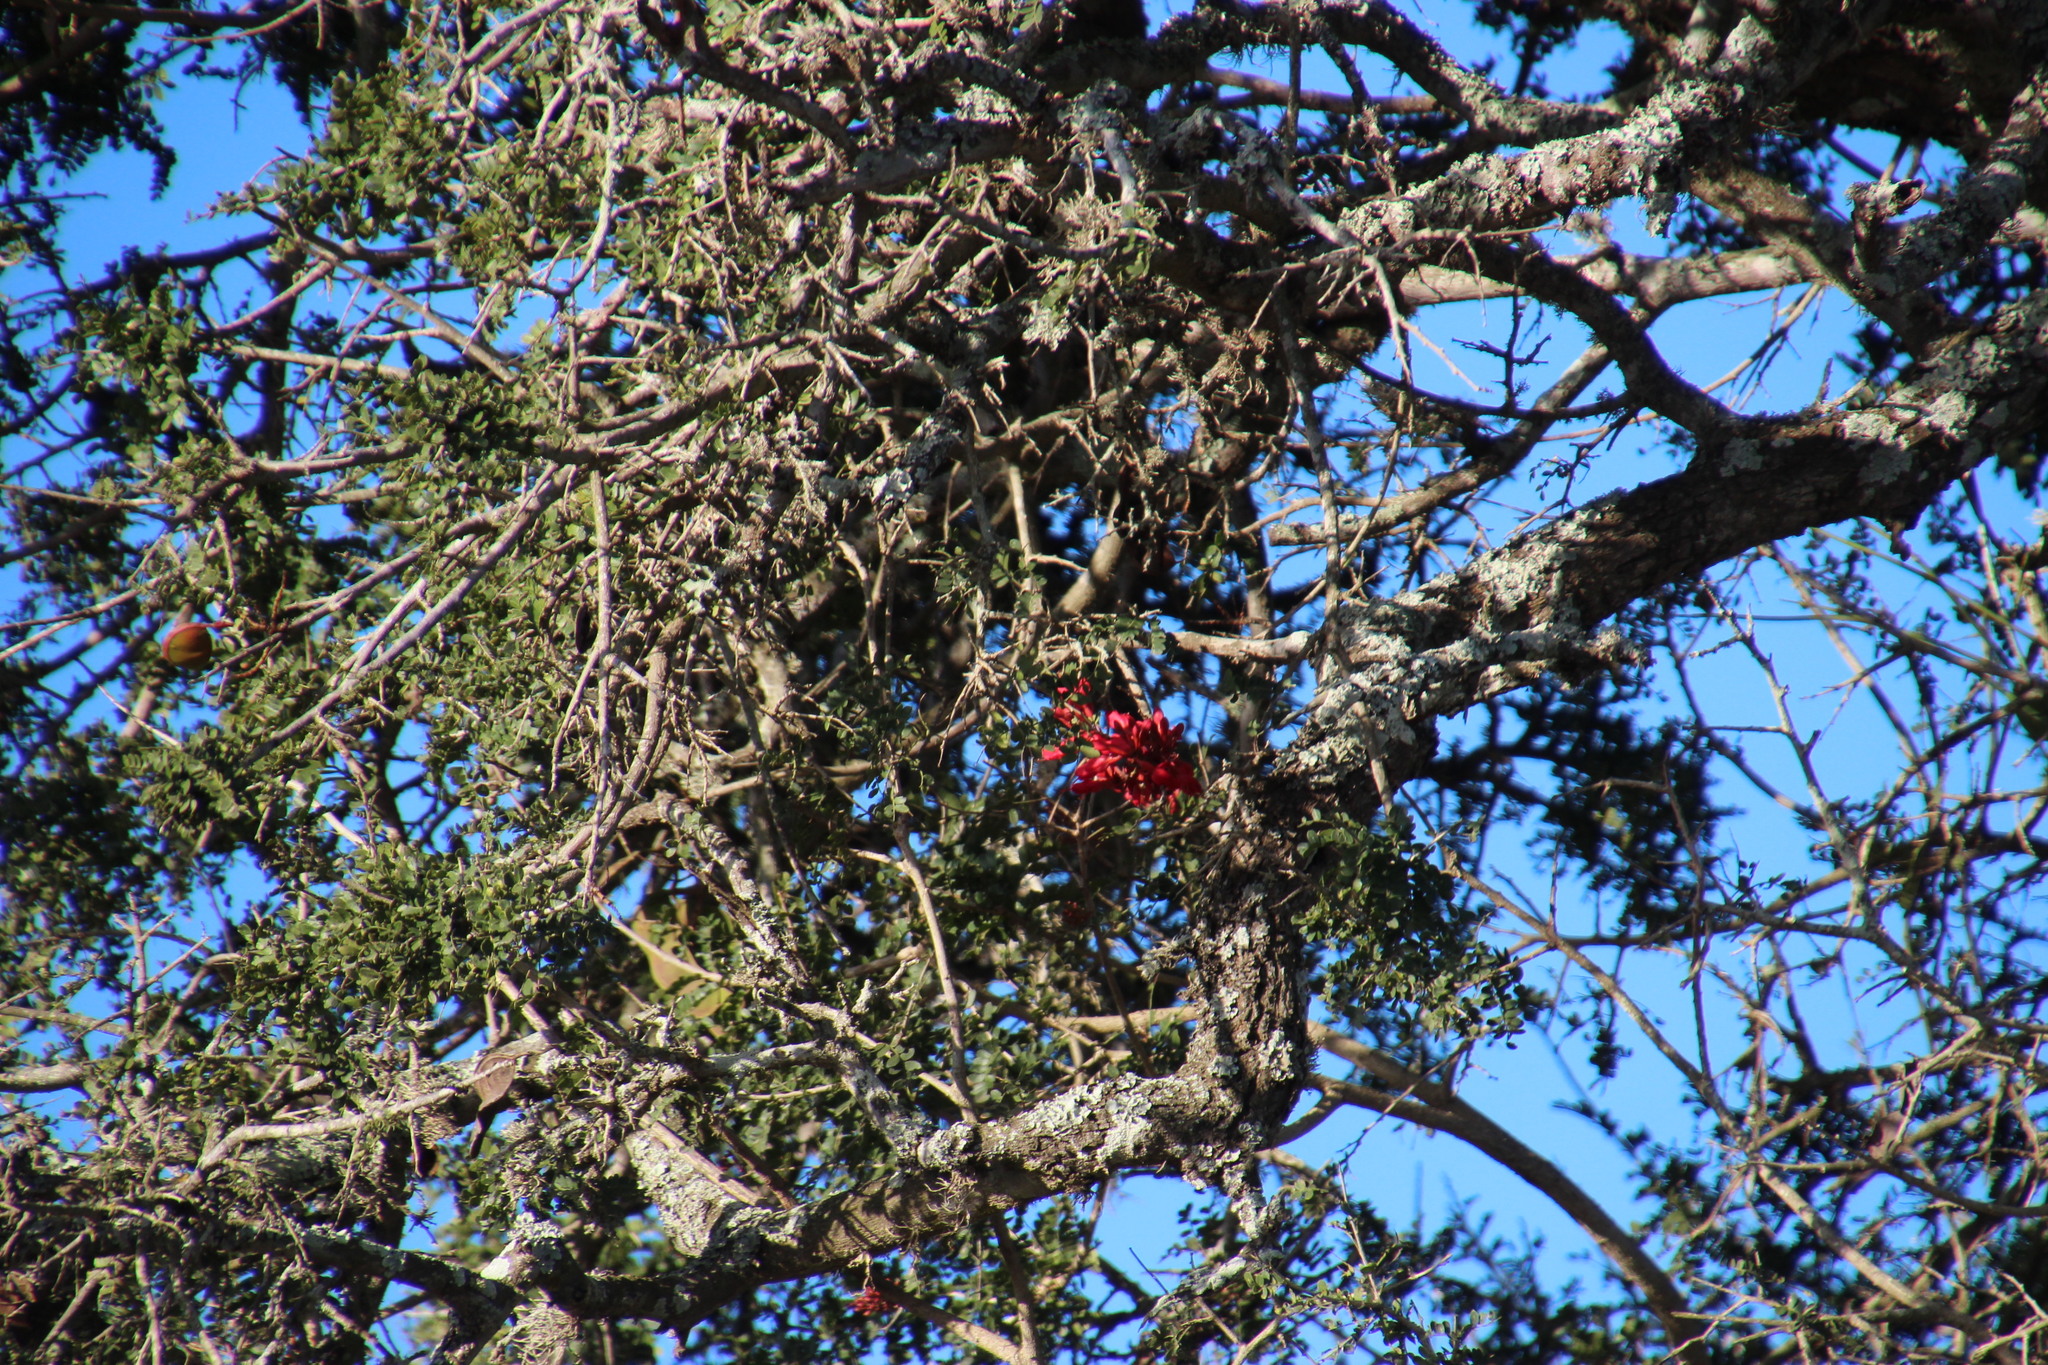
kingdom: Plantae
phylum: Tracheophyta
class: Magnoliopsida
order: Fabales
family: Fabaceae
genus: Schotia
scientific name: Schotia afra
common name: Hottentot's bean
